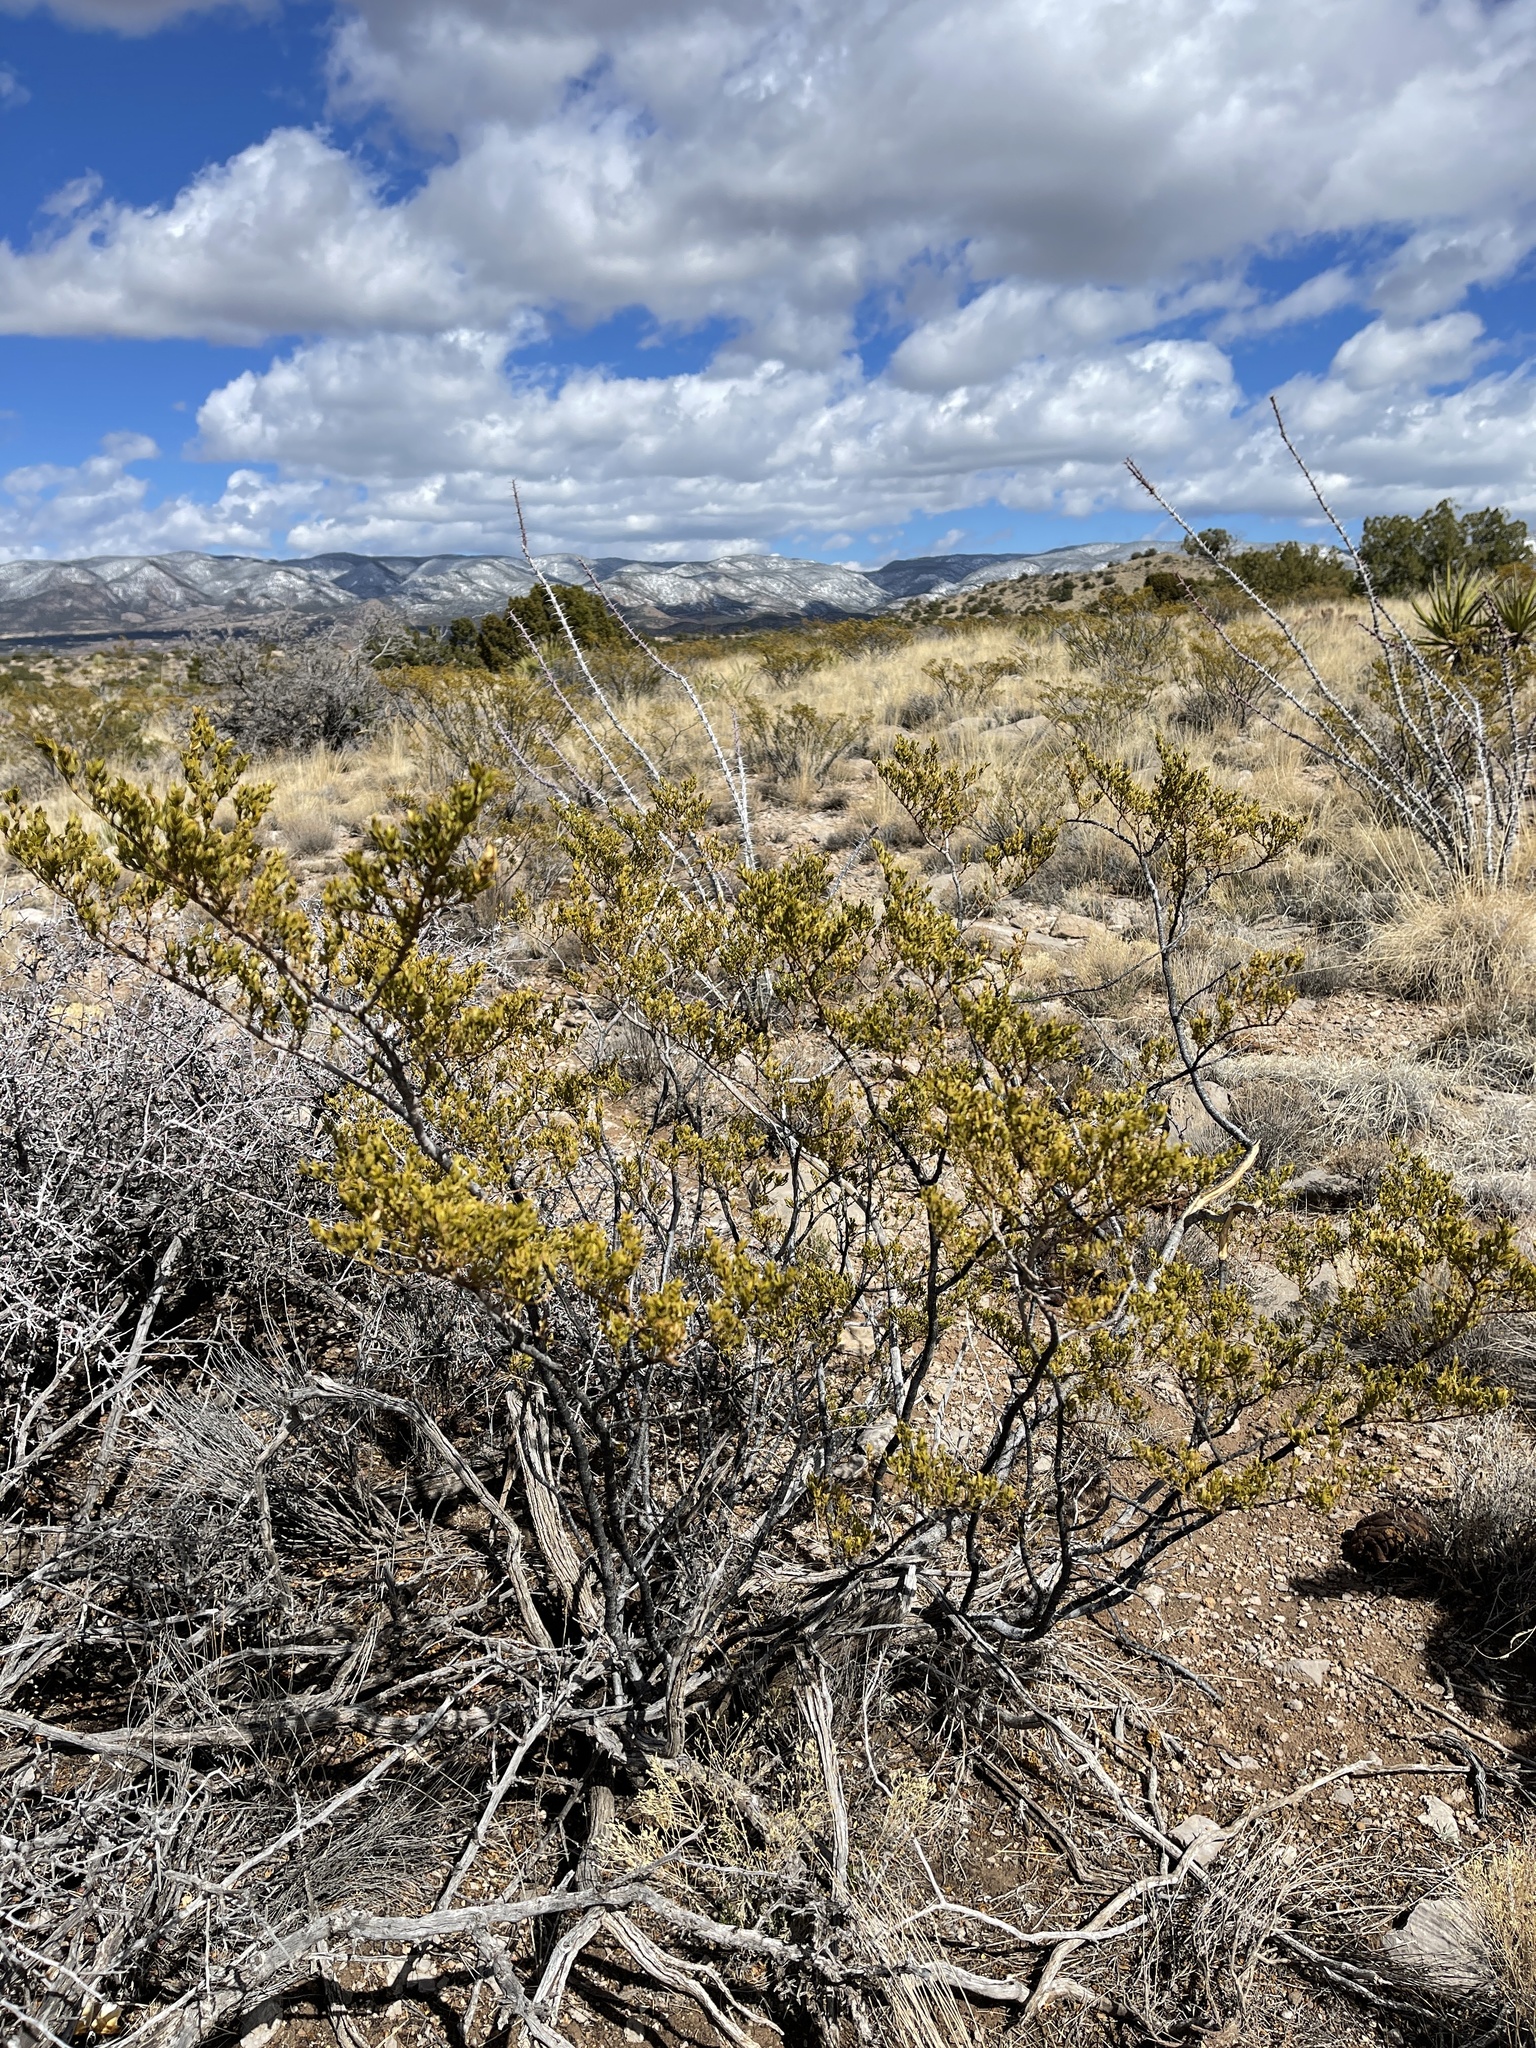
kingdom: Plantae
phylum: Tracheophyta
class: Magnoliopsida
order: Zygophyllales
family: Zygophyllaceae
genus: Larrea
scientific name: Larrea tridentata
